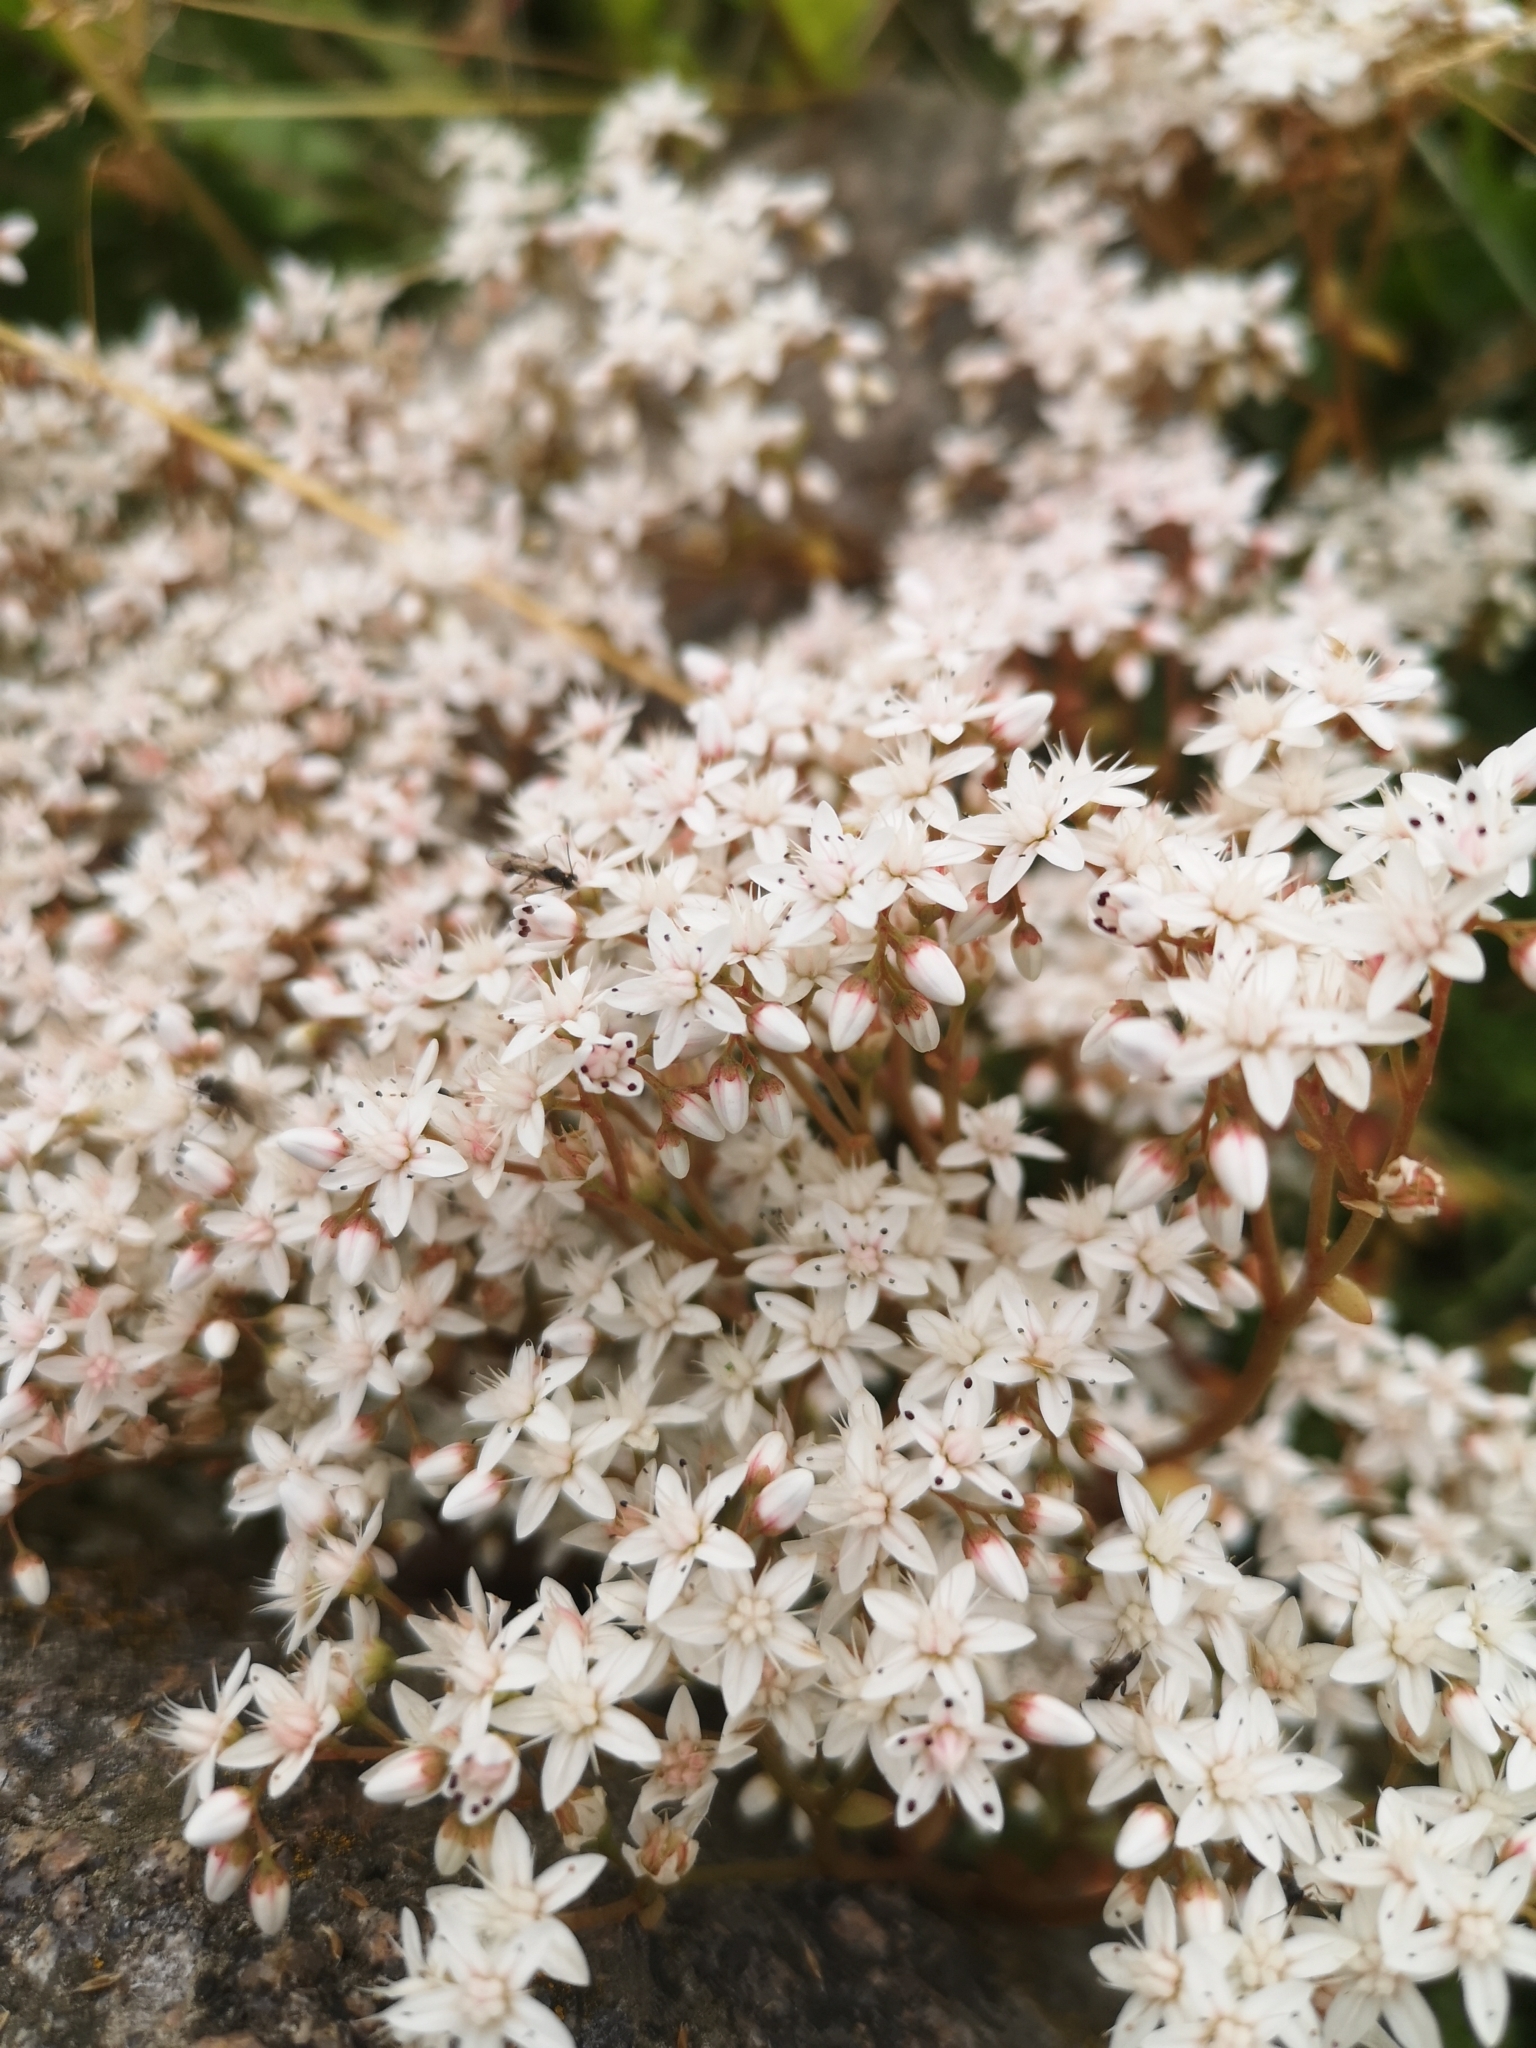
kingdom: Plantae
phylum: Tracheophyta
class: Magnoliopsida
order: Saxifragales
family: Crassulaceae
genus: Sedum
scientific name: Sedum album
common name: White stonecrop
